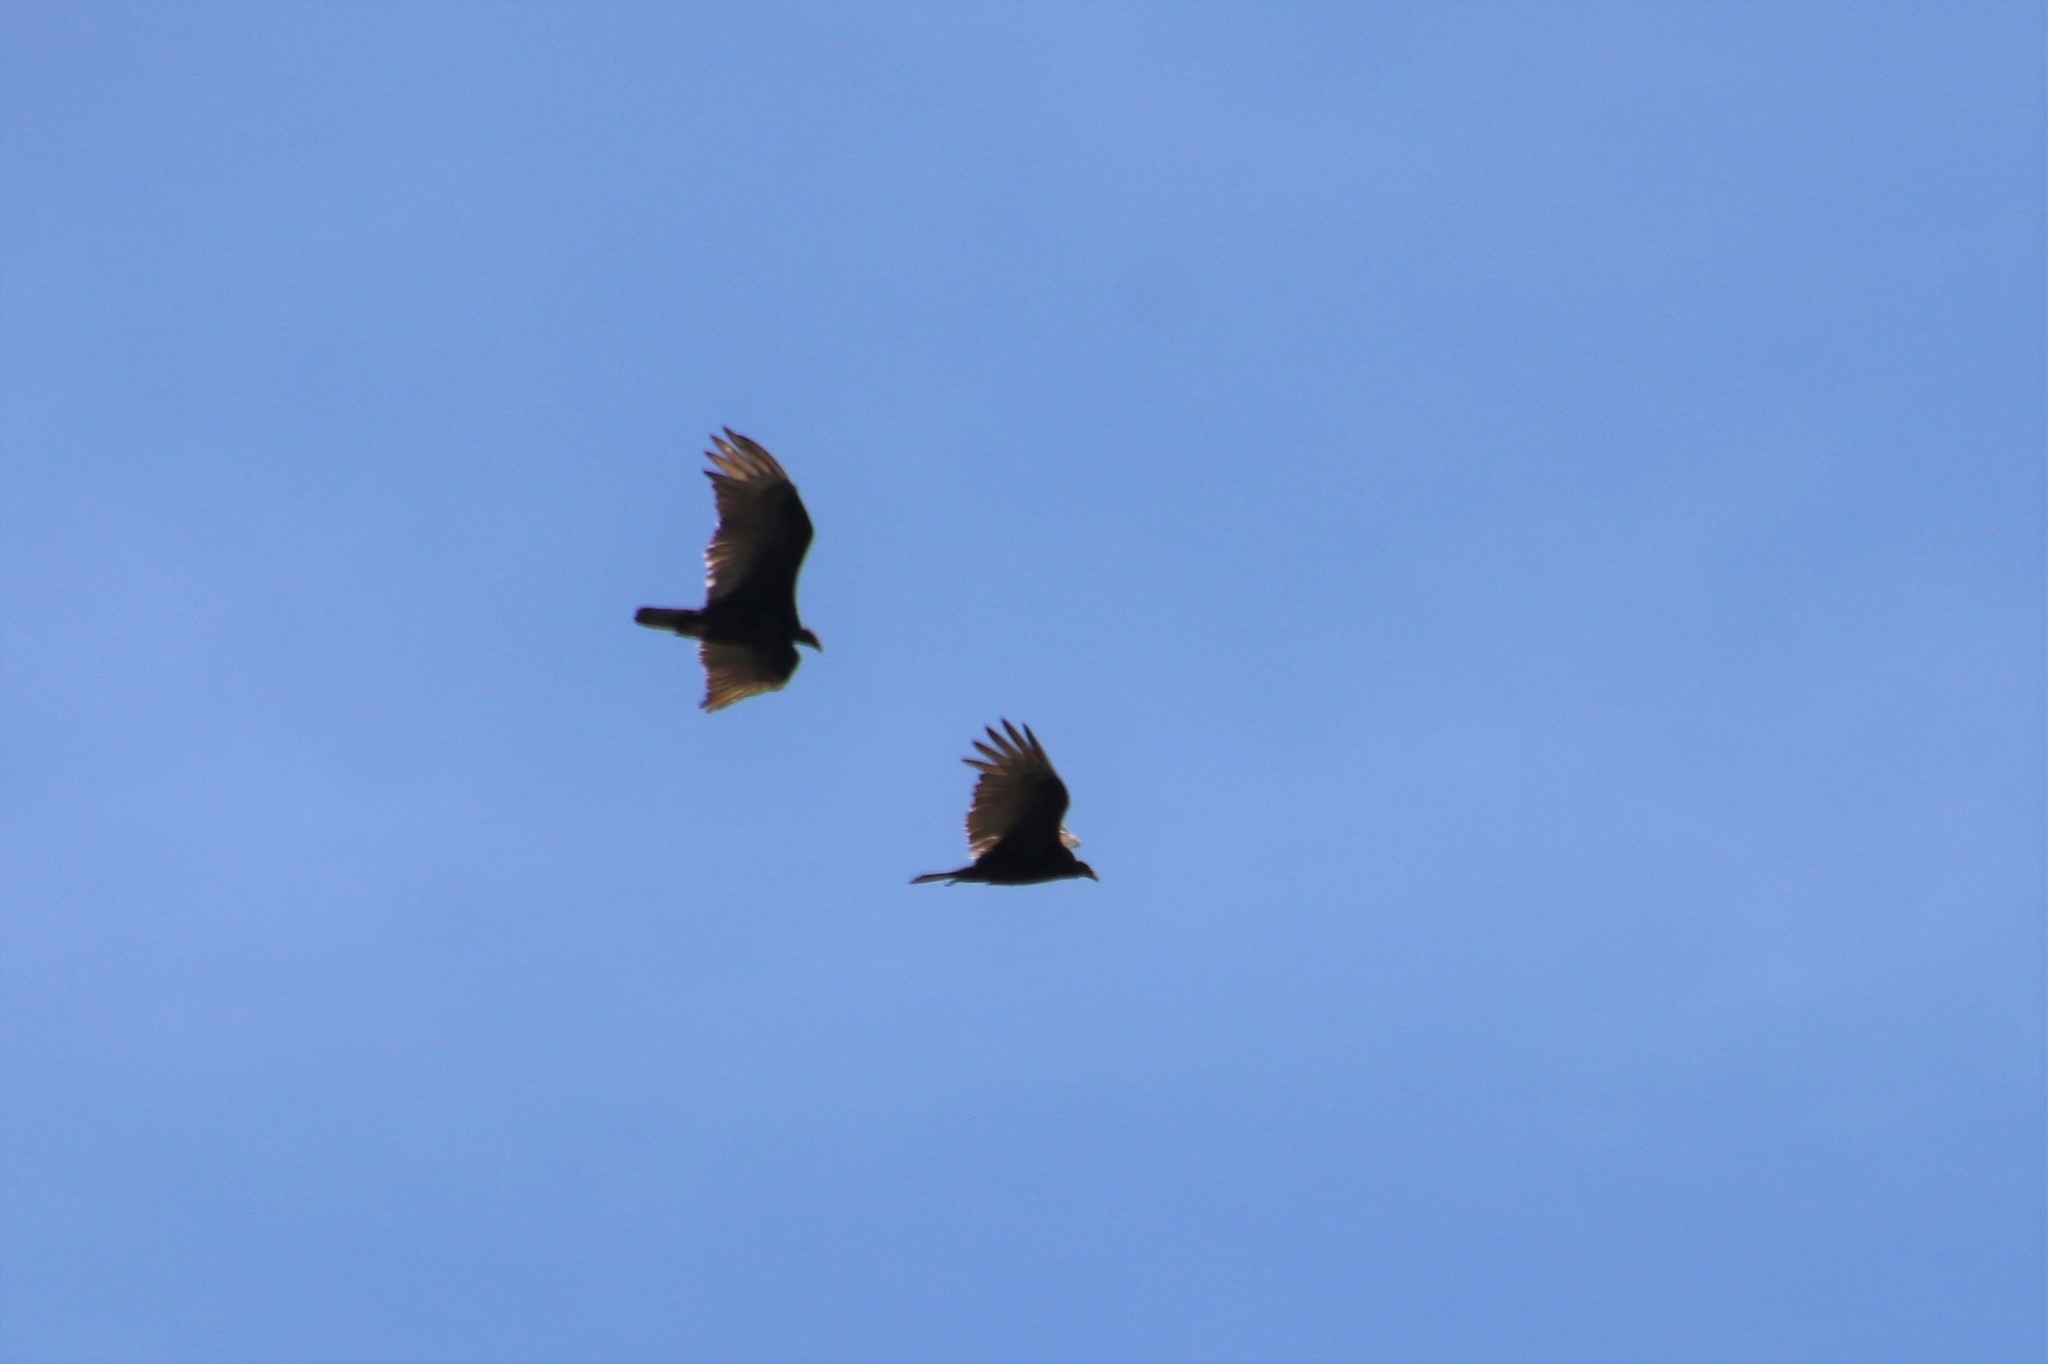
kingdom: Animalia
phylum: Chordata
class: Aves
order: Accipitriformes
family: Cathartidae
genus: Cathartes
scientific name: Cathartes aura
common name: Turkey vulture
